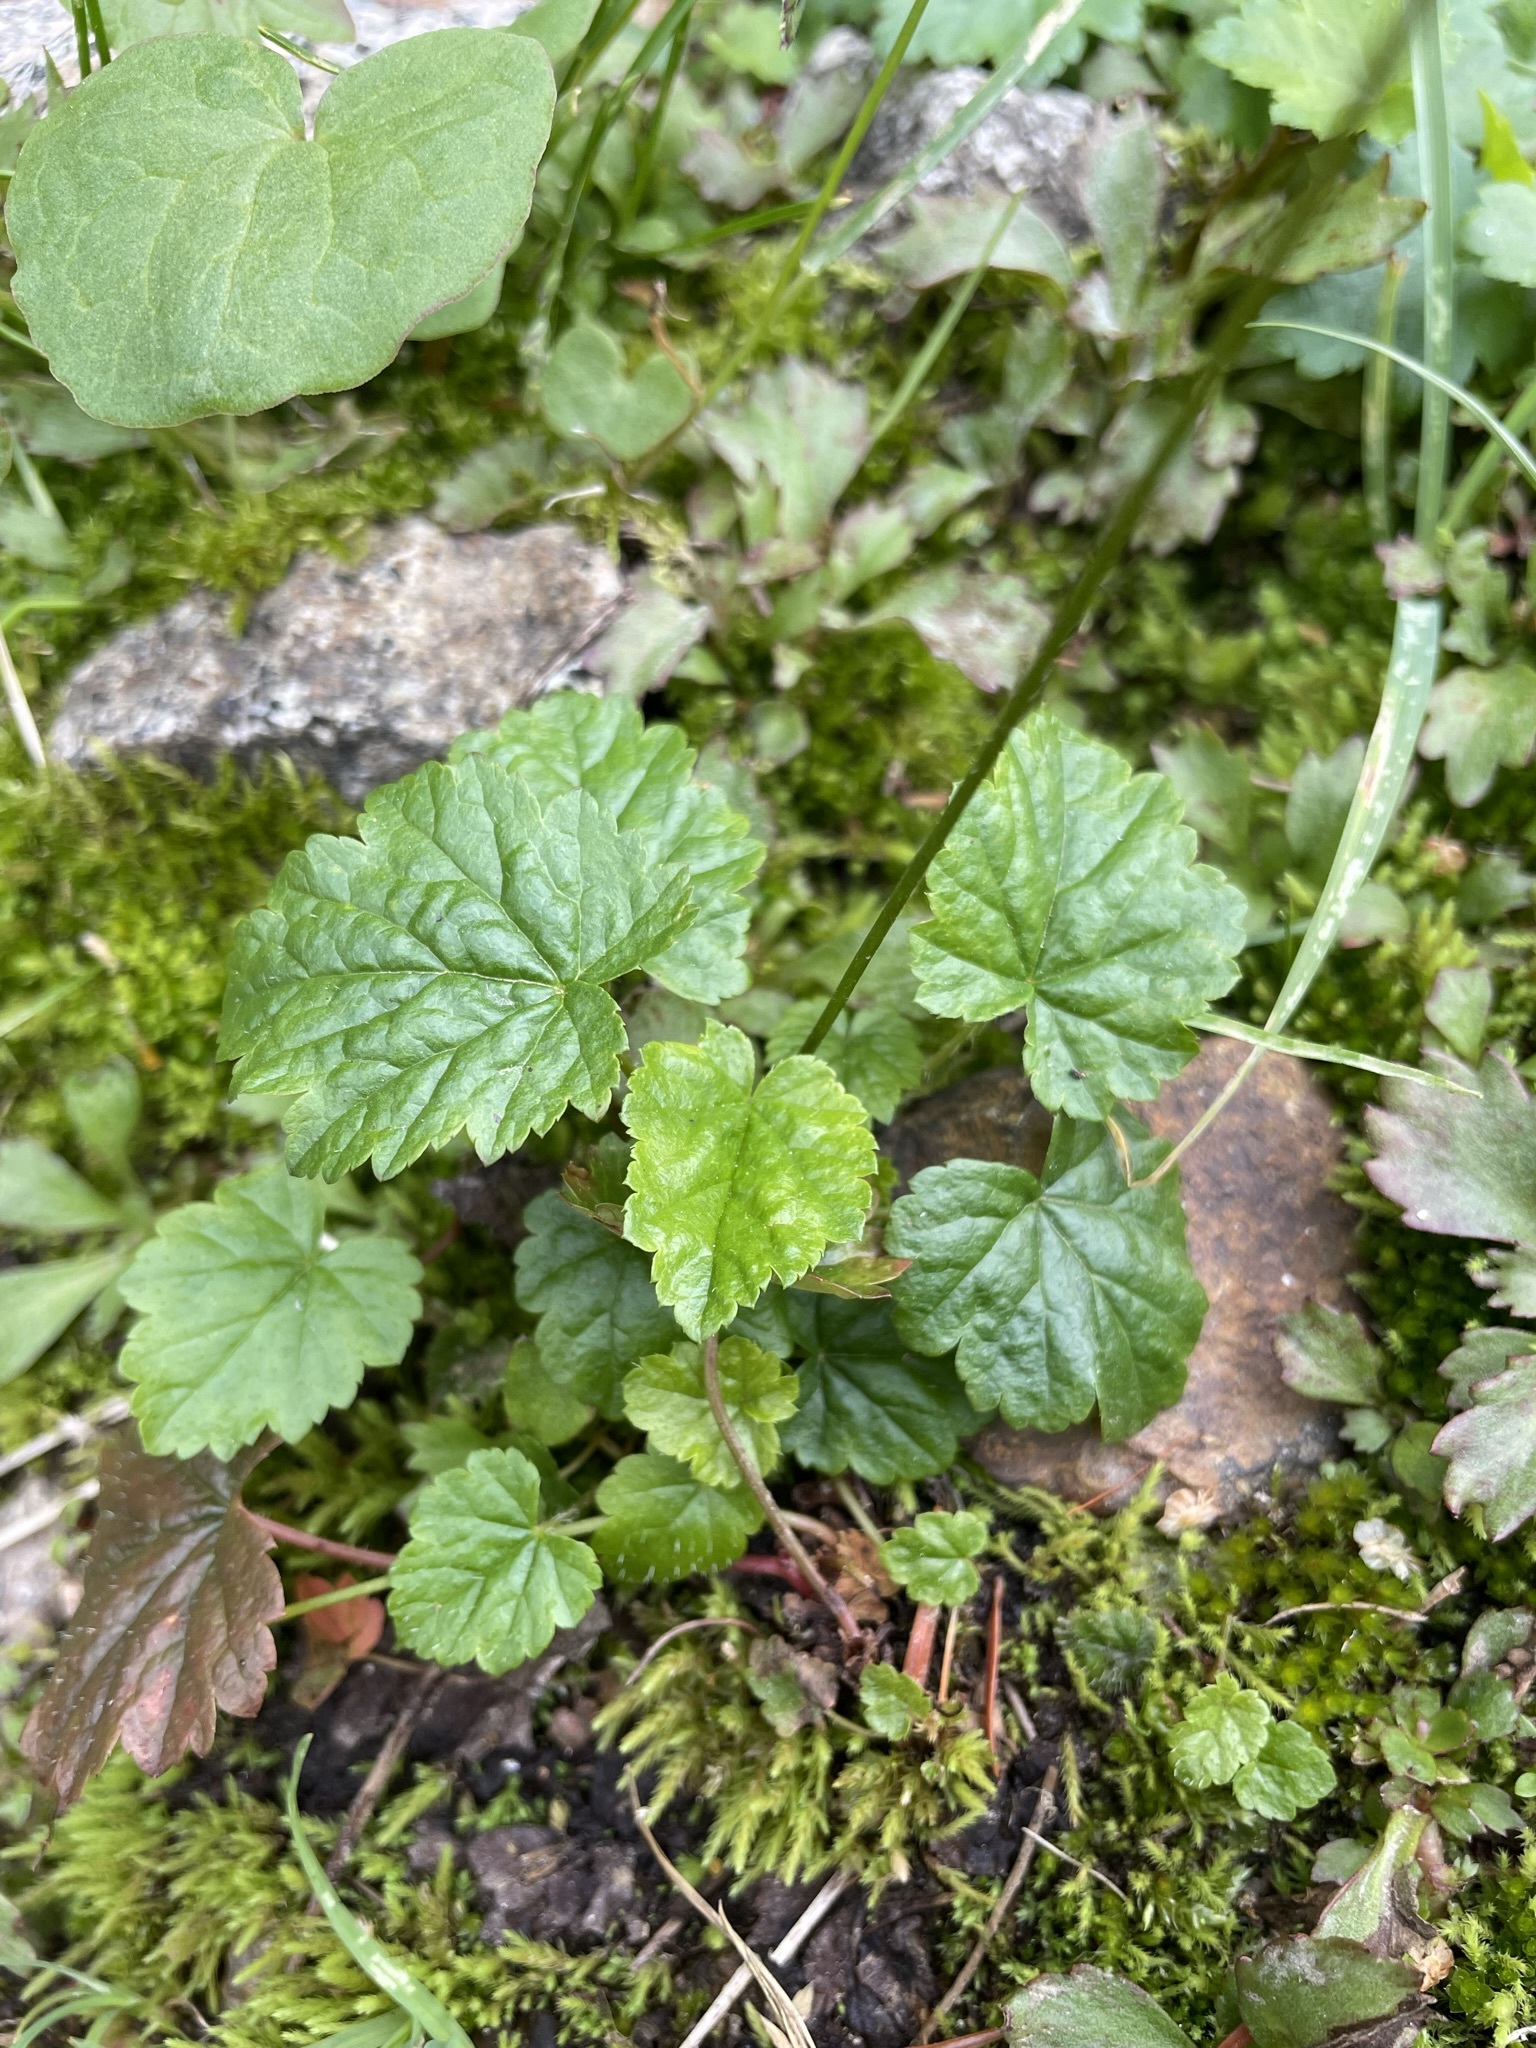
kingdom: Plantae
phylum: Tracheophyta
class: Magnoliopsida
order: Saxifragales
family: Saxifragaceae
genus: Pectiantia
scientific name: Pectiantia pentandra
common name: Alpine bishop's-cap
